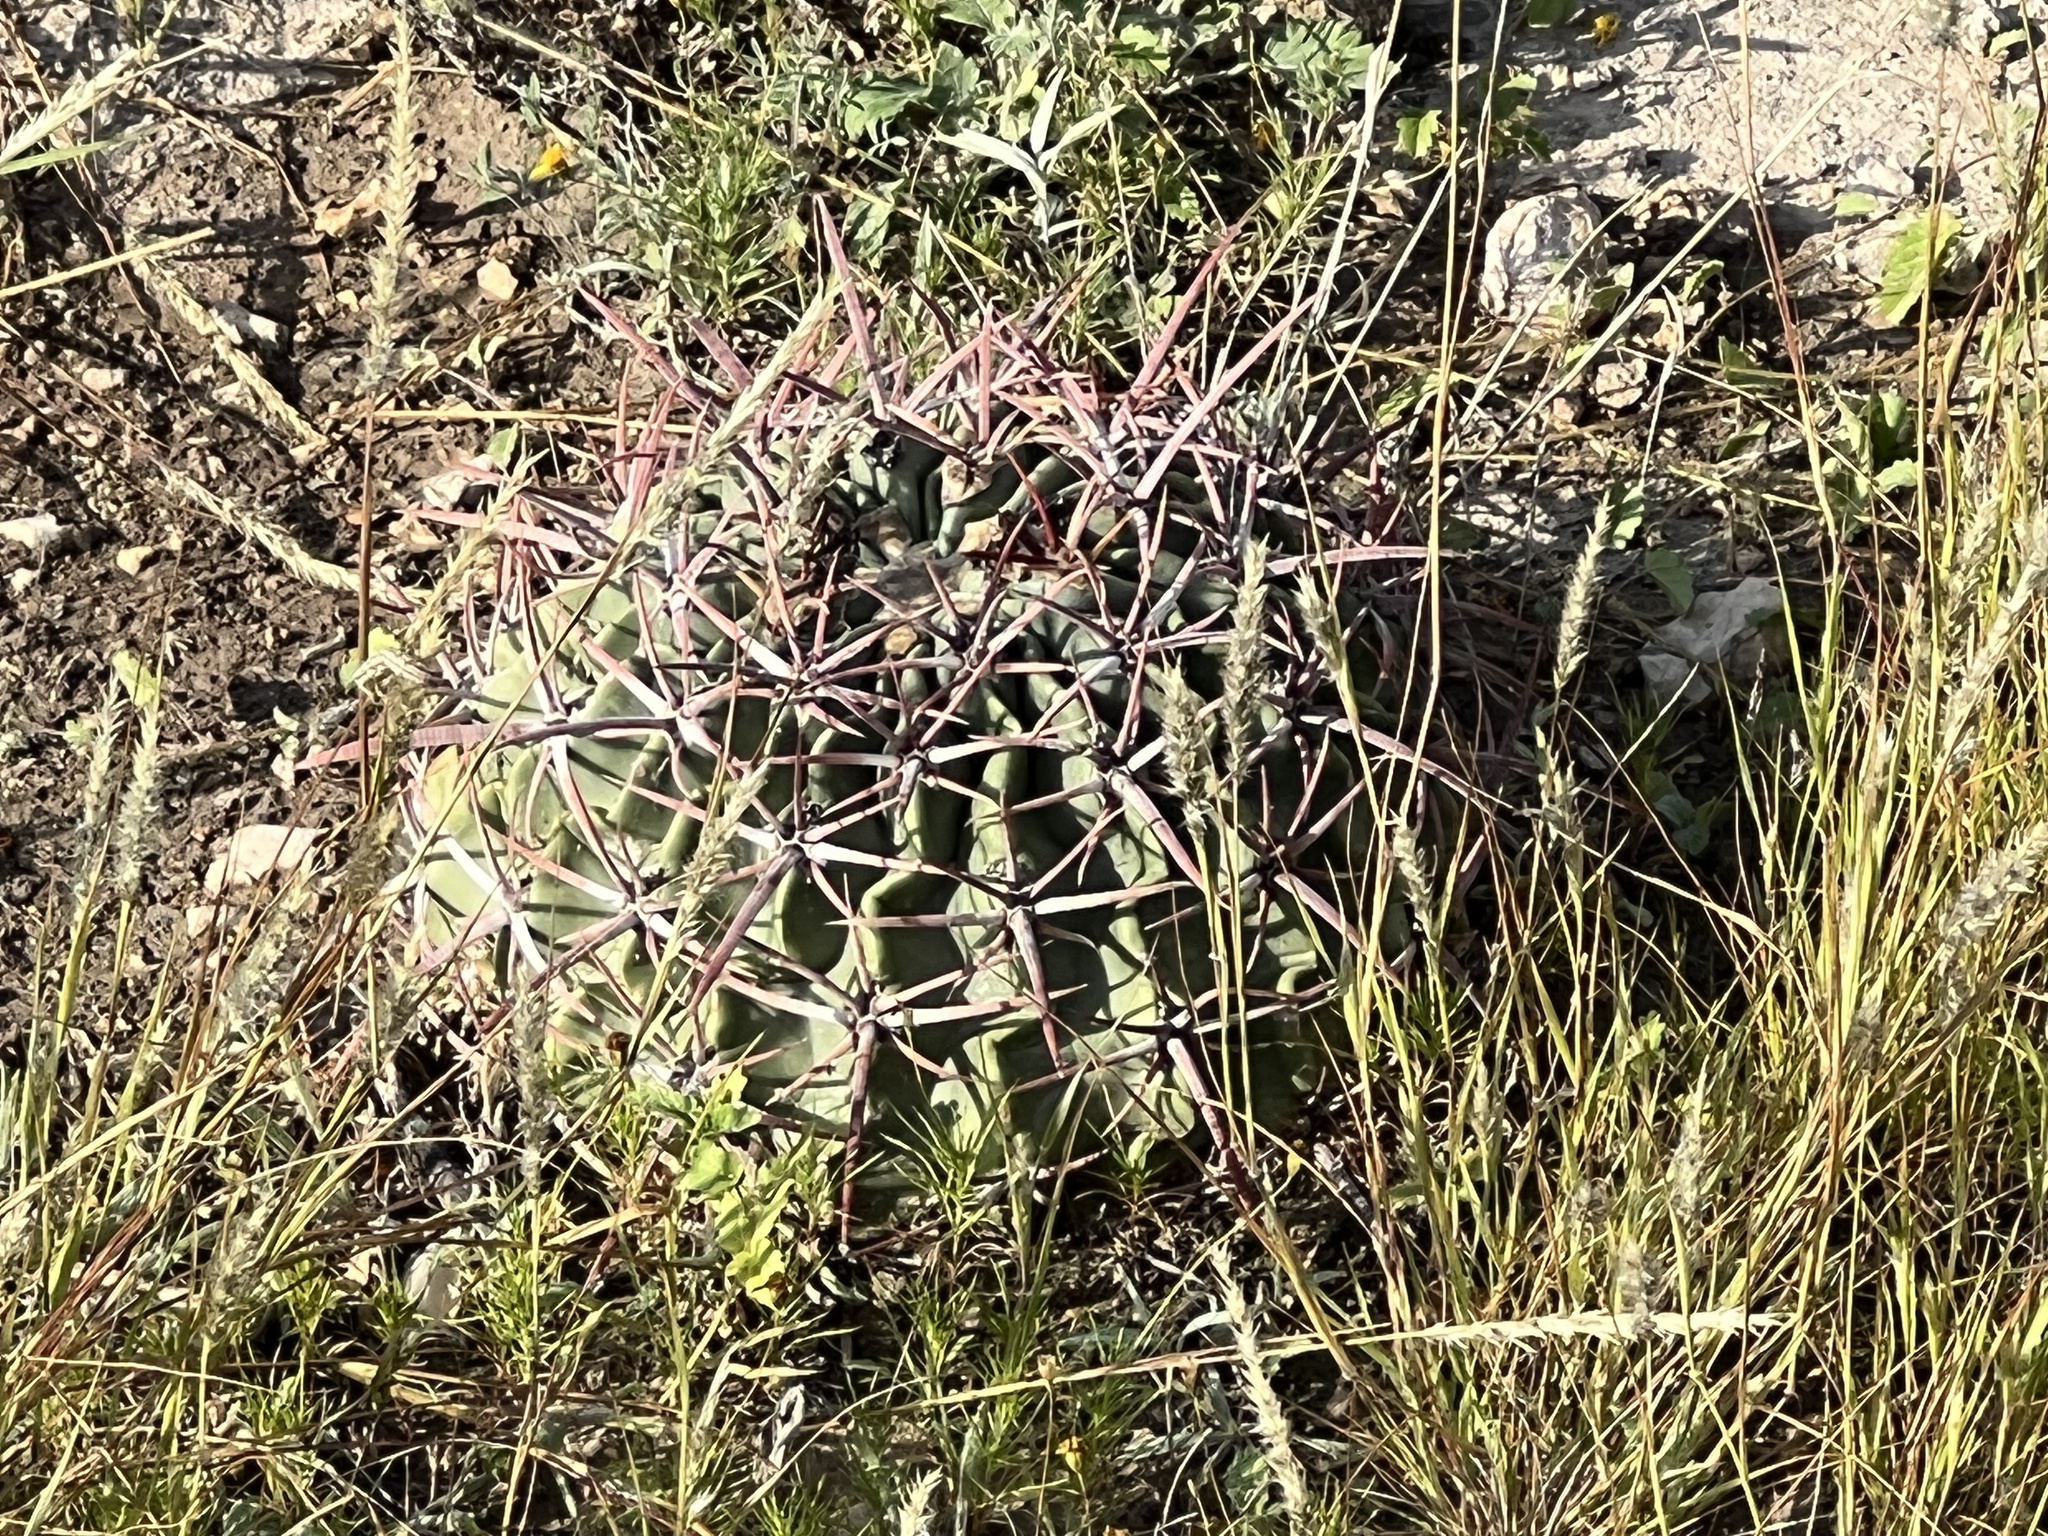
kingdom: Plantae
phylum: Tracheophyta
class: Magnoliopsida
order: Caryophyllales
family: Cactaceae
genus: Echinocactus
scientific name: Echinocactus texensis
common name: Devil's pincushion
